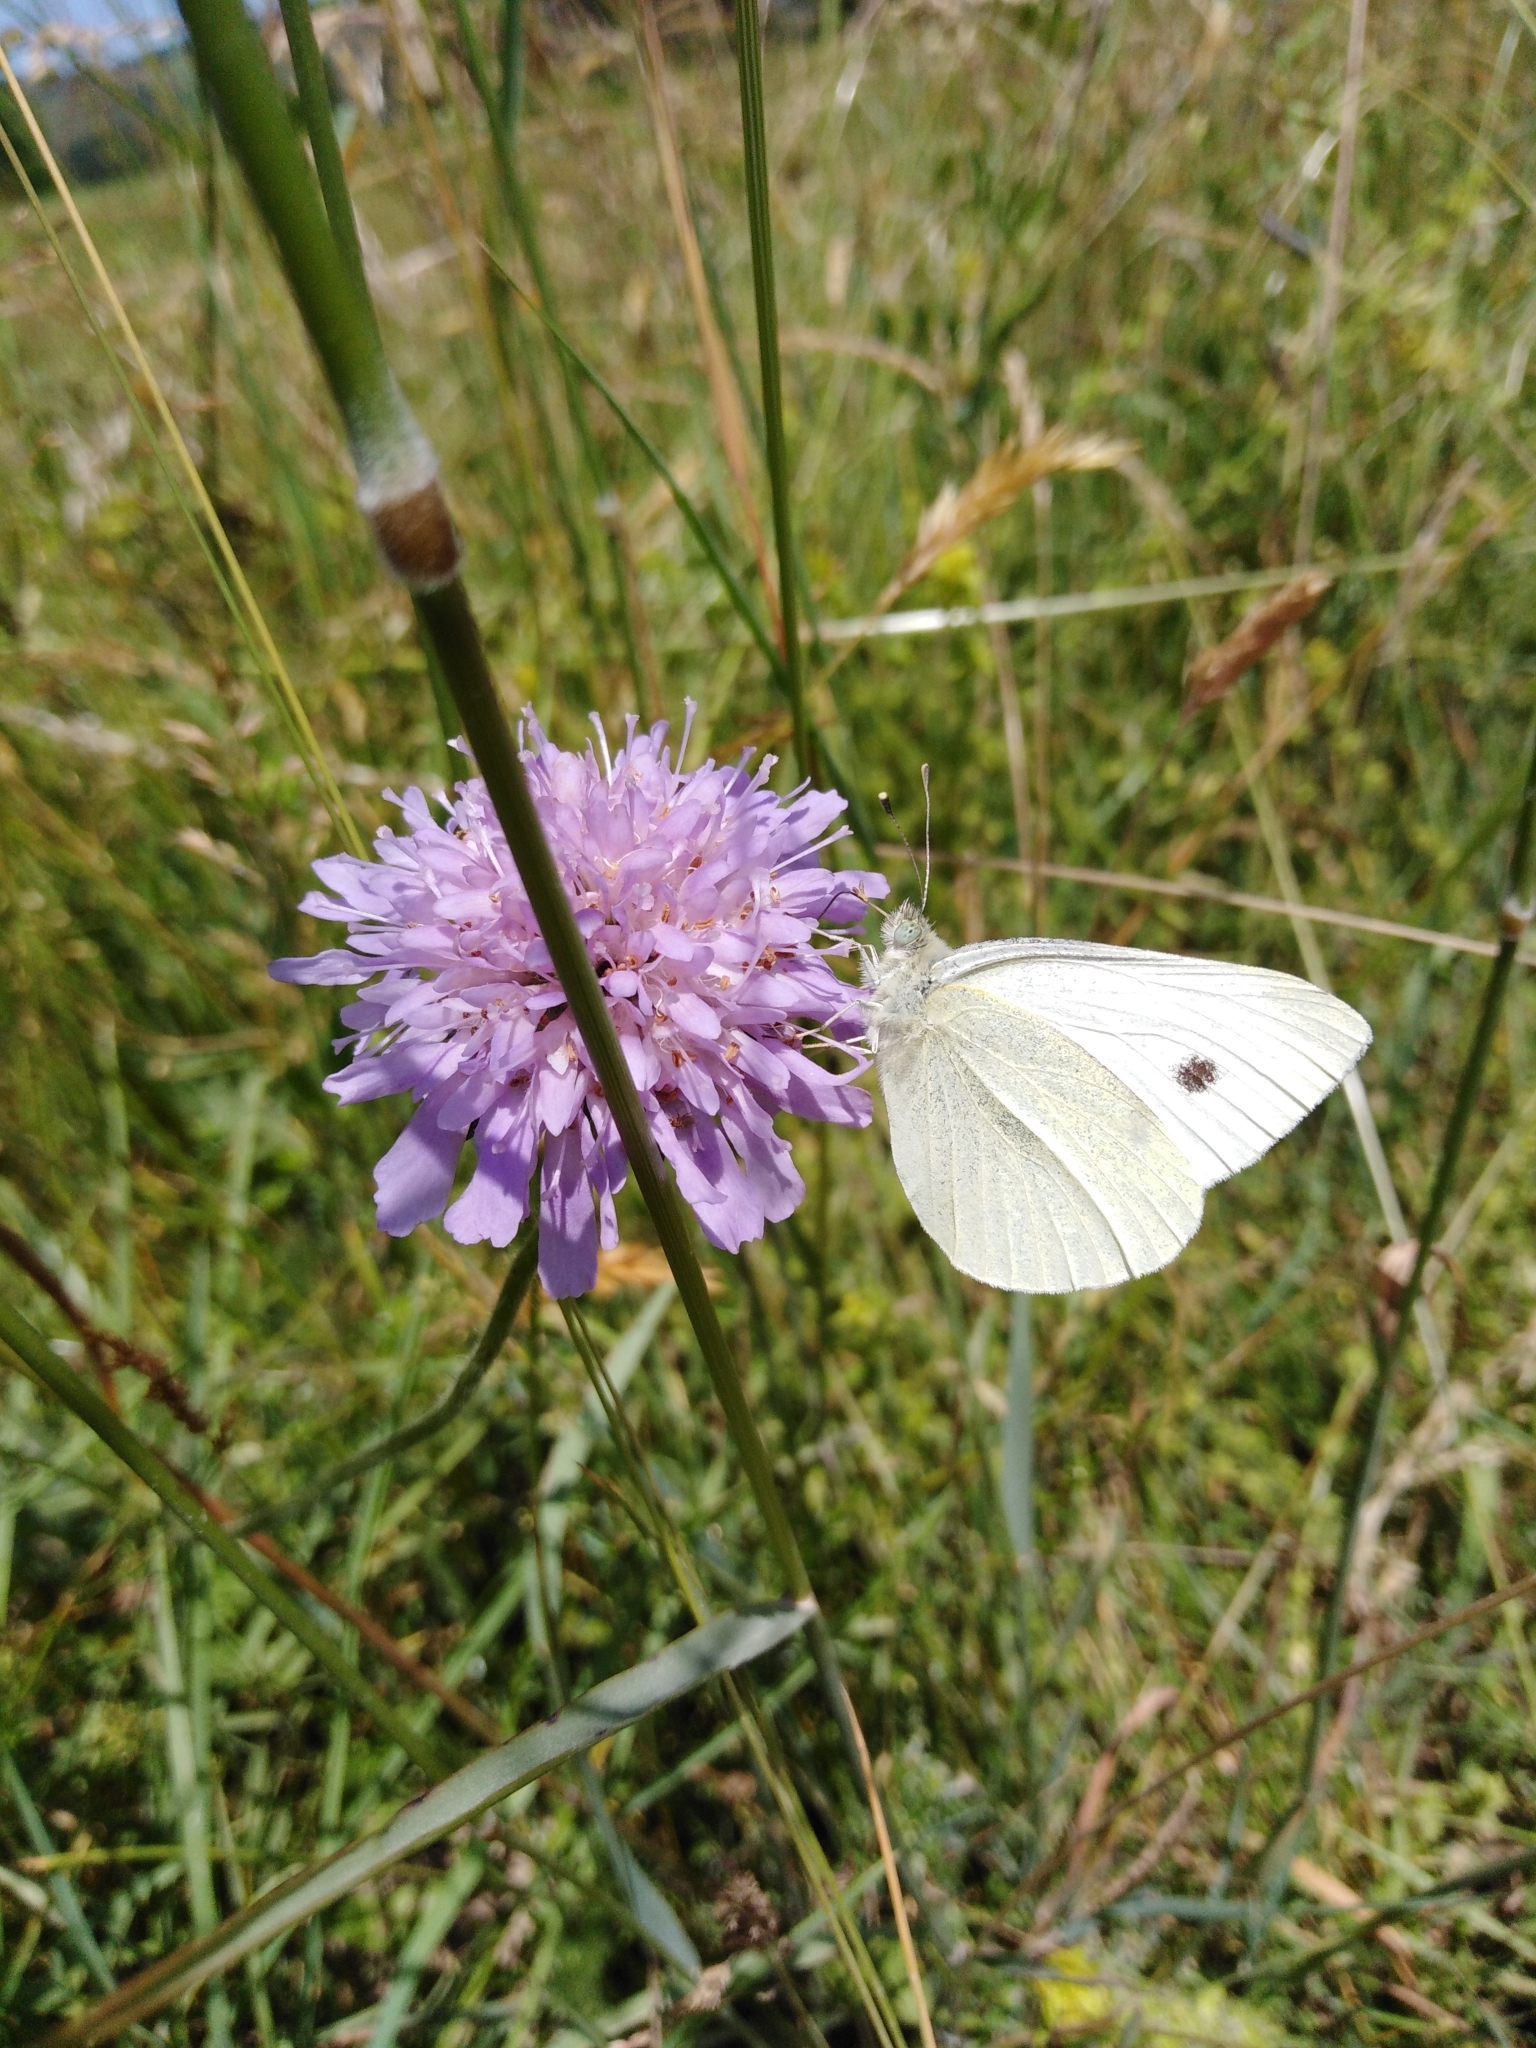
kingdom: Animalia
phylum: Arthropoda
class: Insecta
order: Lepidoptera
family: Pieridae
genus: Pieris
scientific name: Pieris rapae
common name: Small white
